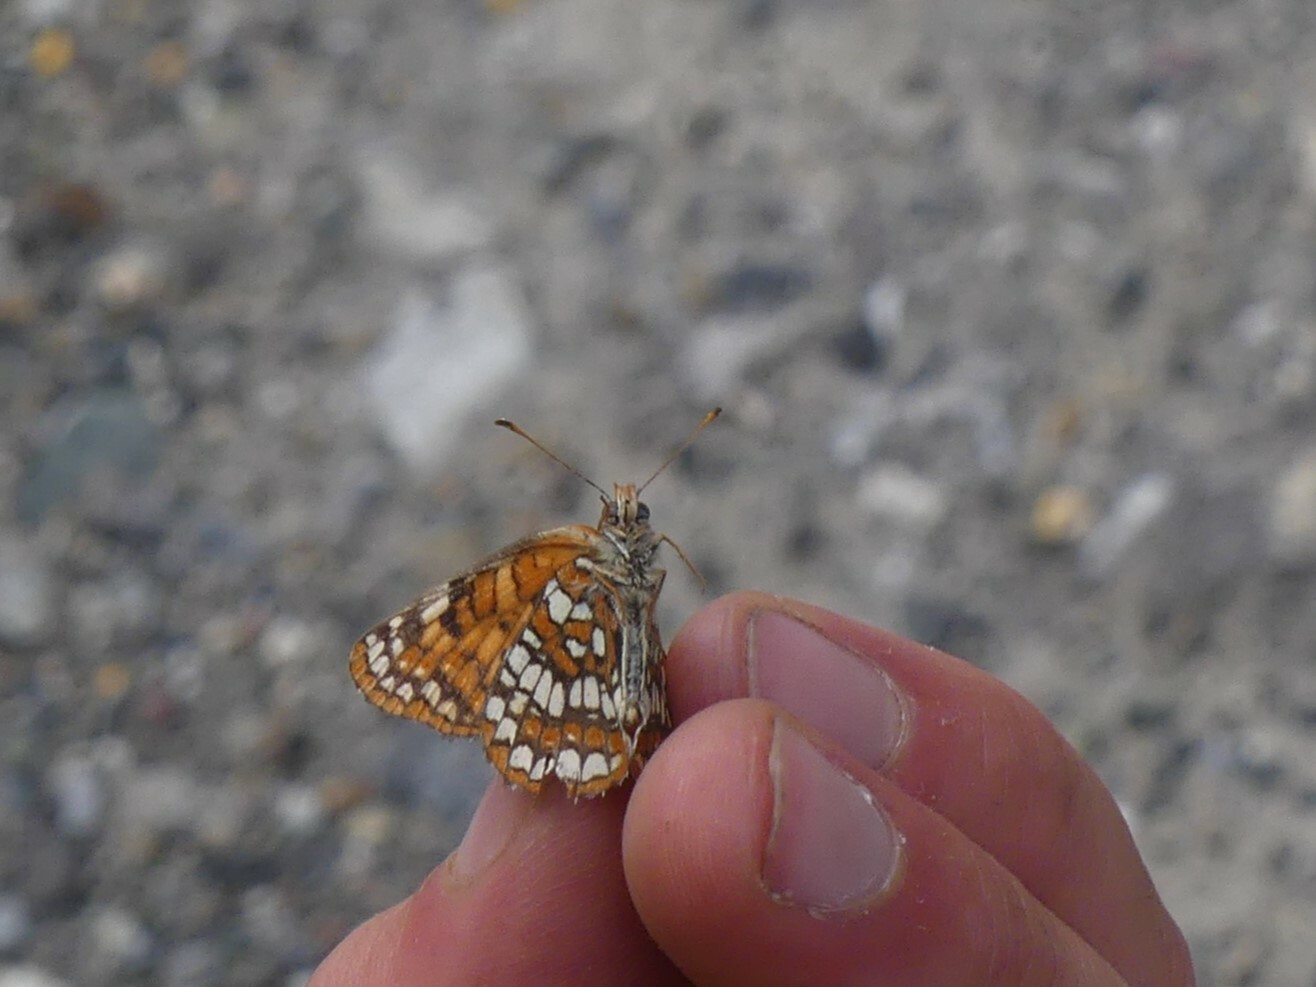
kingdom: Animalia
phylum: Arthropoda
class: Insecta
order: Lepidoptera
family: Nymphalidae
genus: Chlosyne
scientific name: Chlosyne palla
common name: Northern checkerspot
